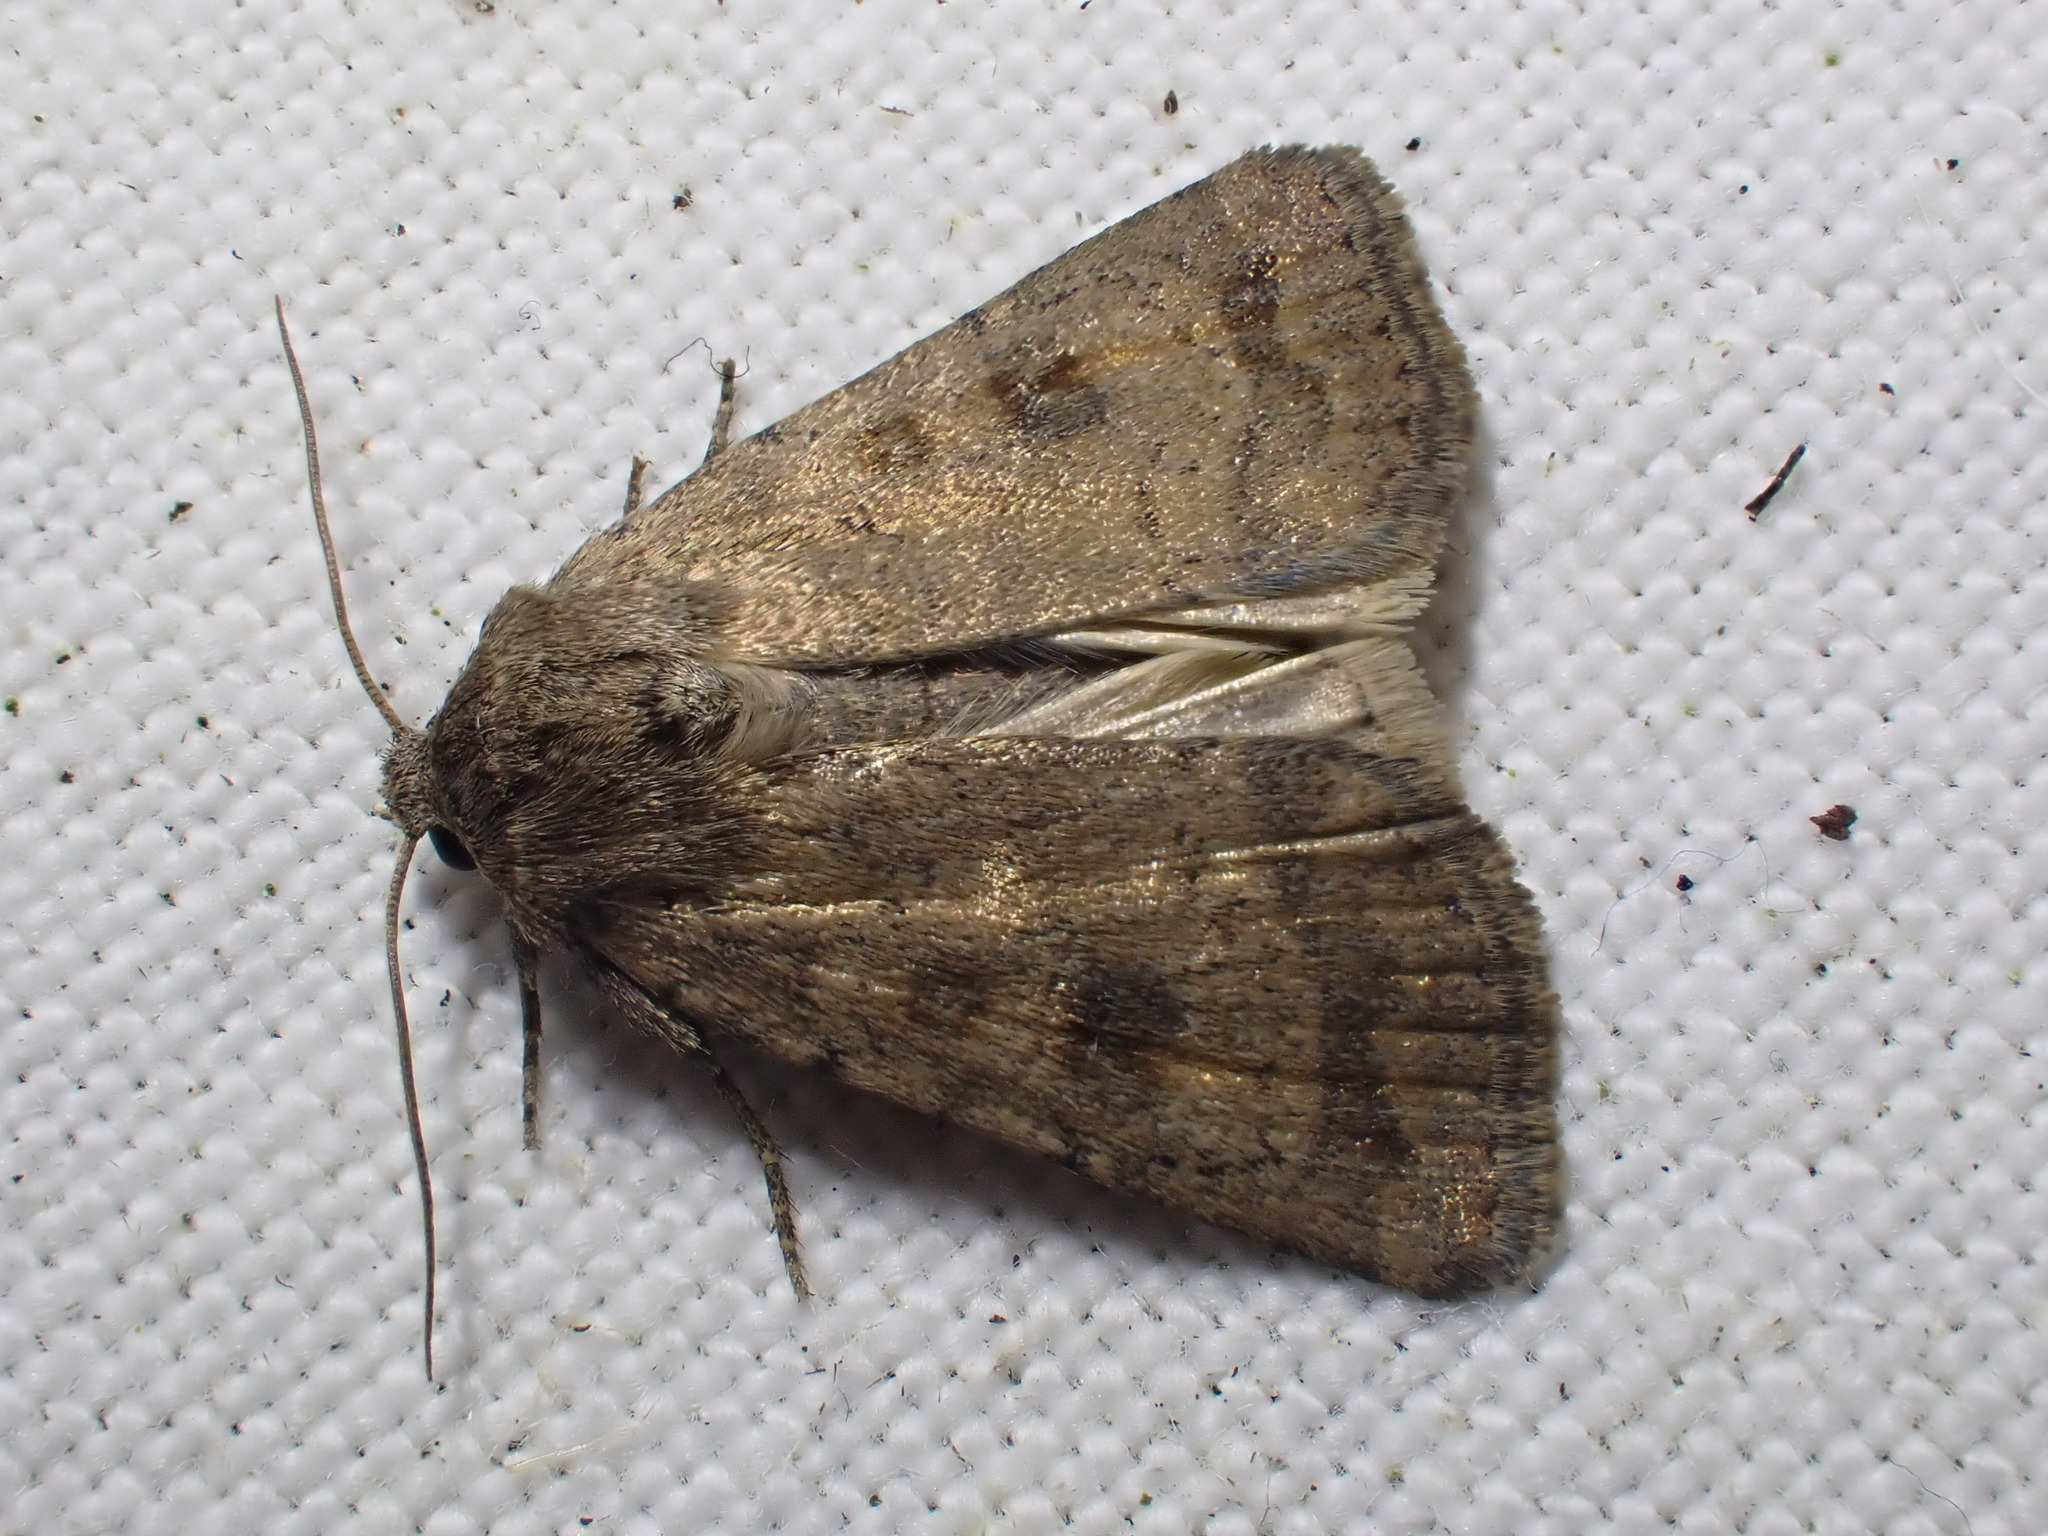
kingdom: Animalia
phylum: Arthropoda
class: Insecta
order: Lepidoptera
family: Noctuidae
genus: Caradrina
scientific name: Caradrina morpheus
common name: Mottled rustic
